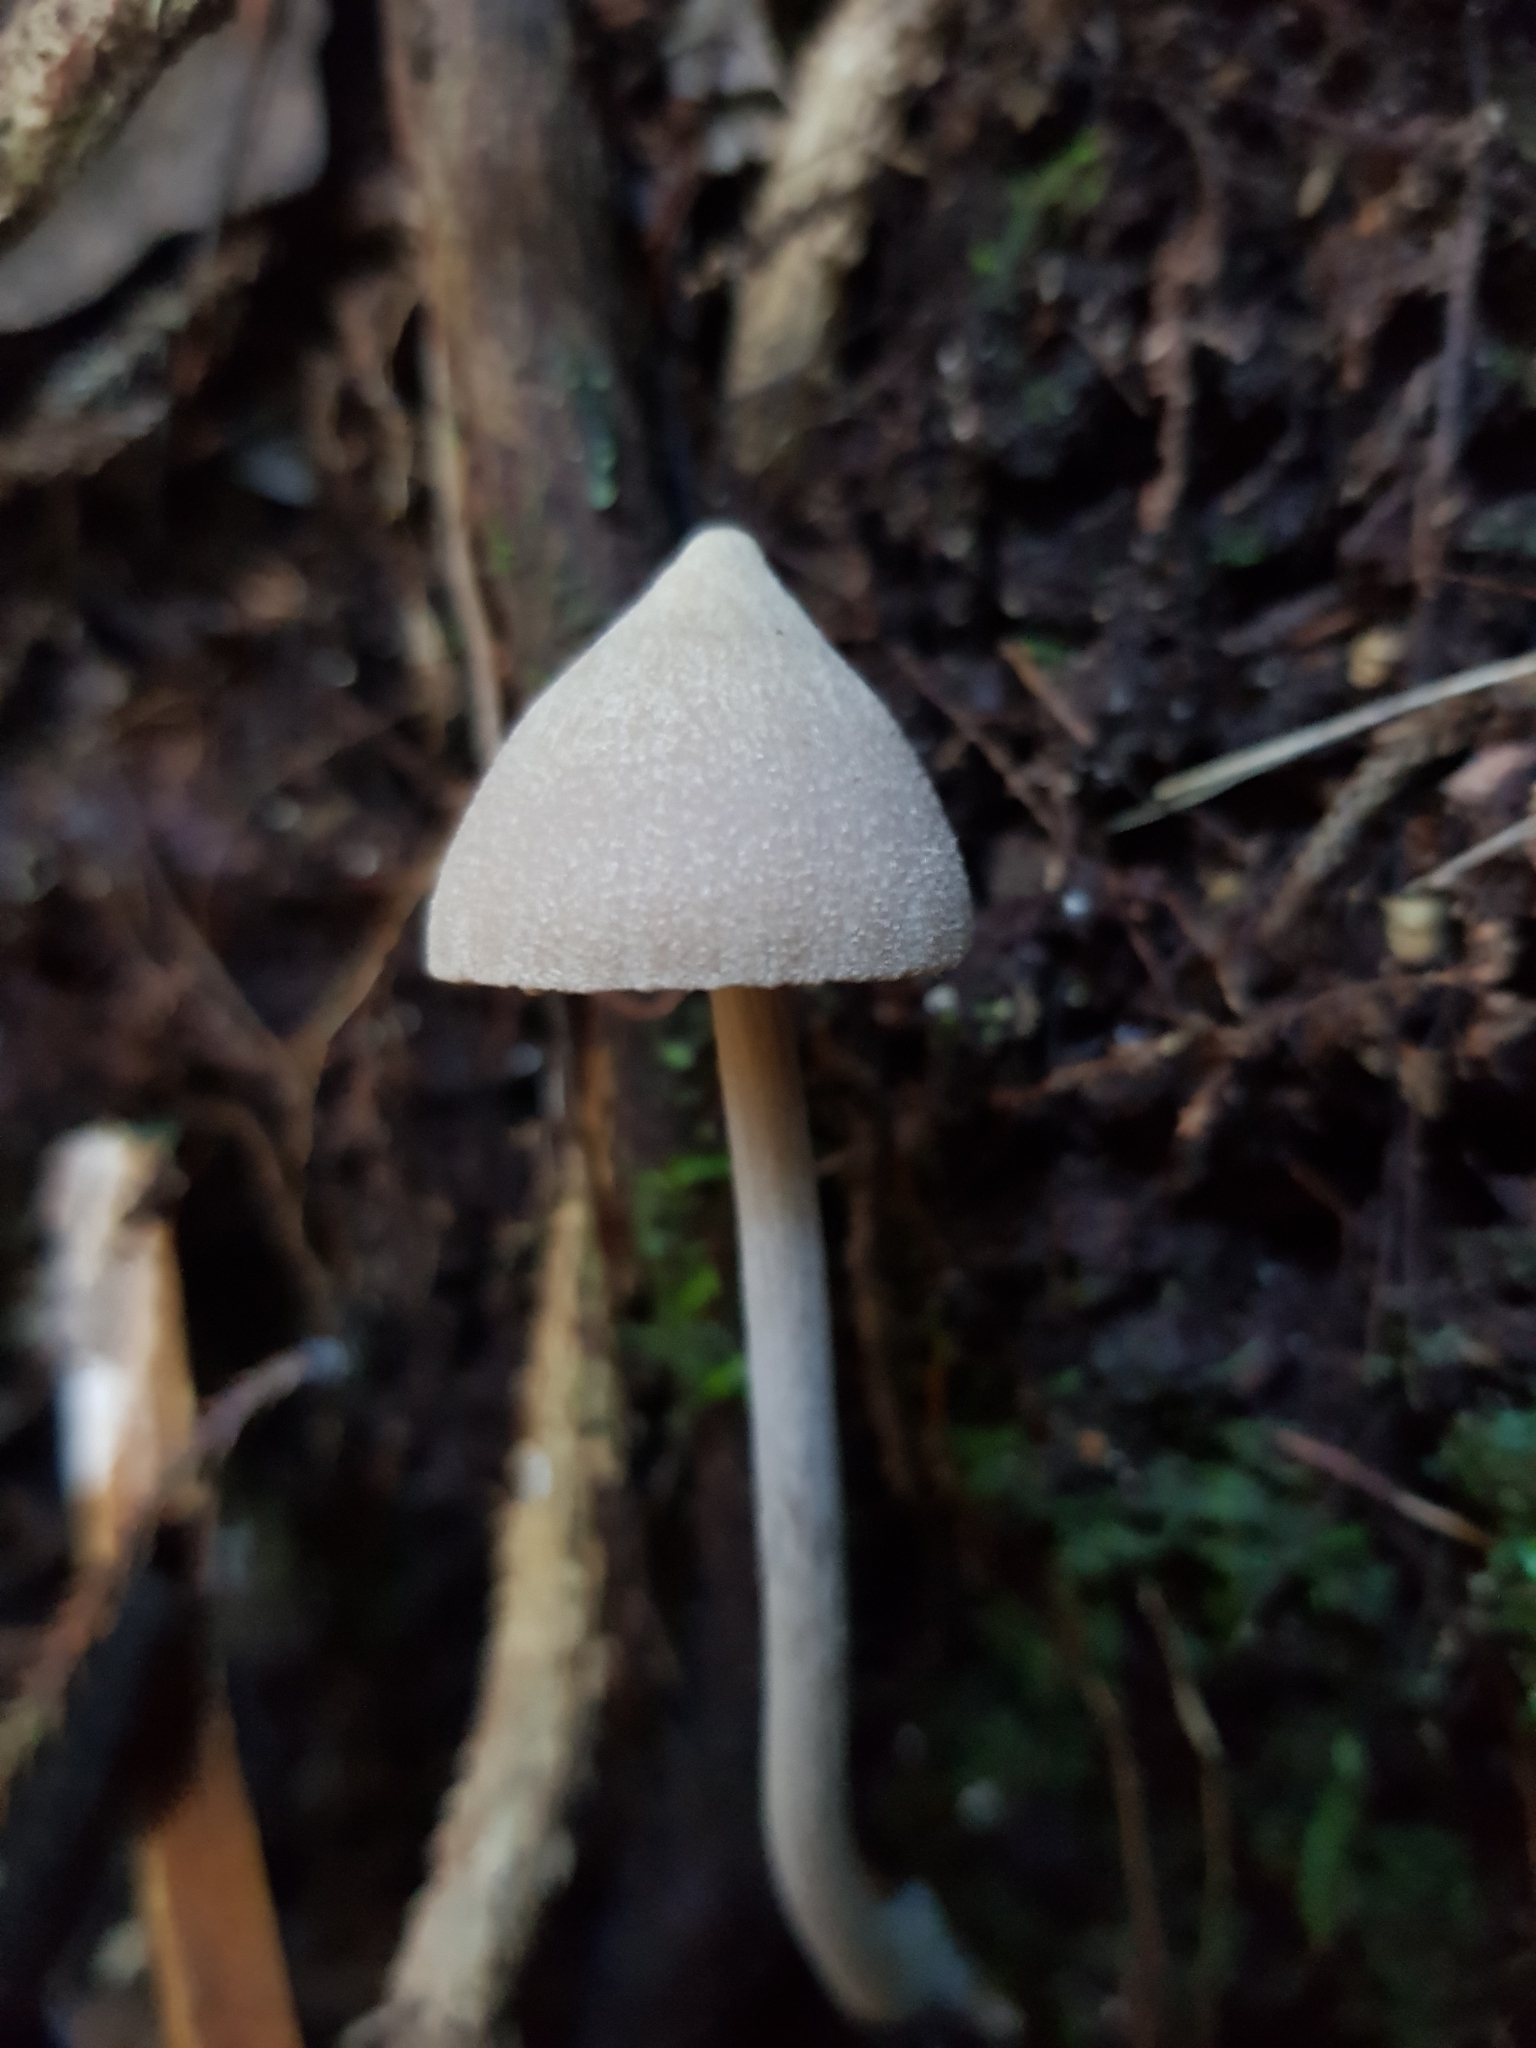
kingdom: Fungi
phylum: Basidiomycota
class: Agaricomycetes
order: Agaricales
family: Entolomataceae
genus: Entoloma
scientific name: Entoloma canoconicum
